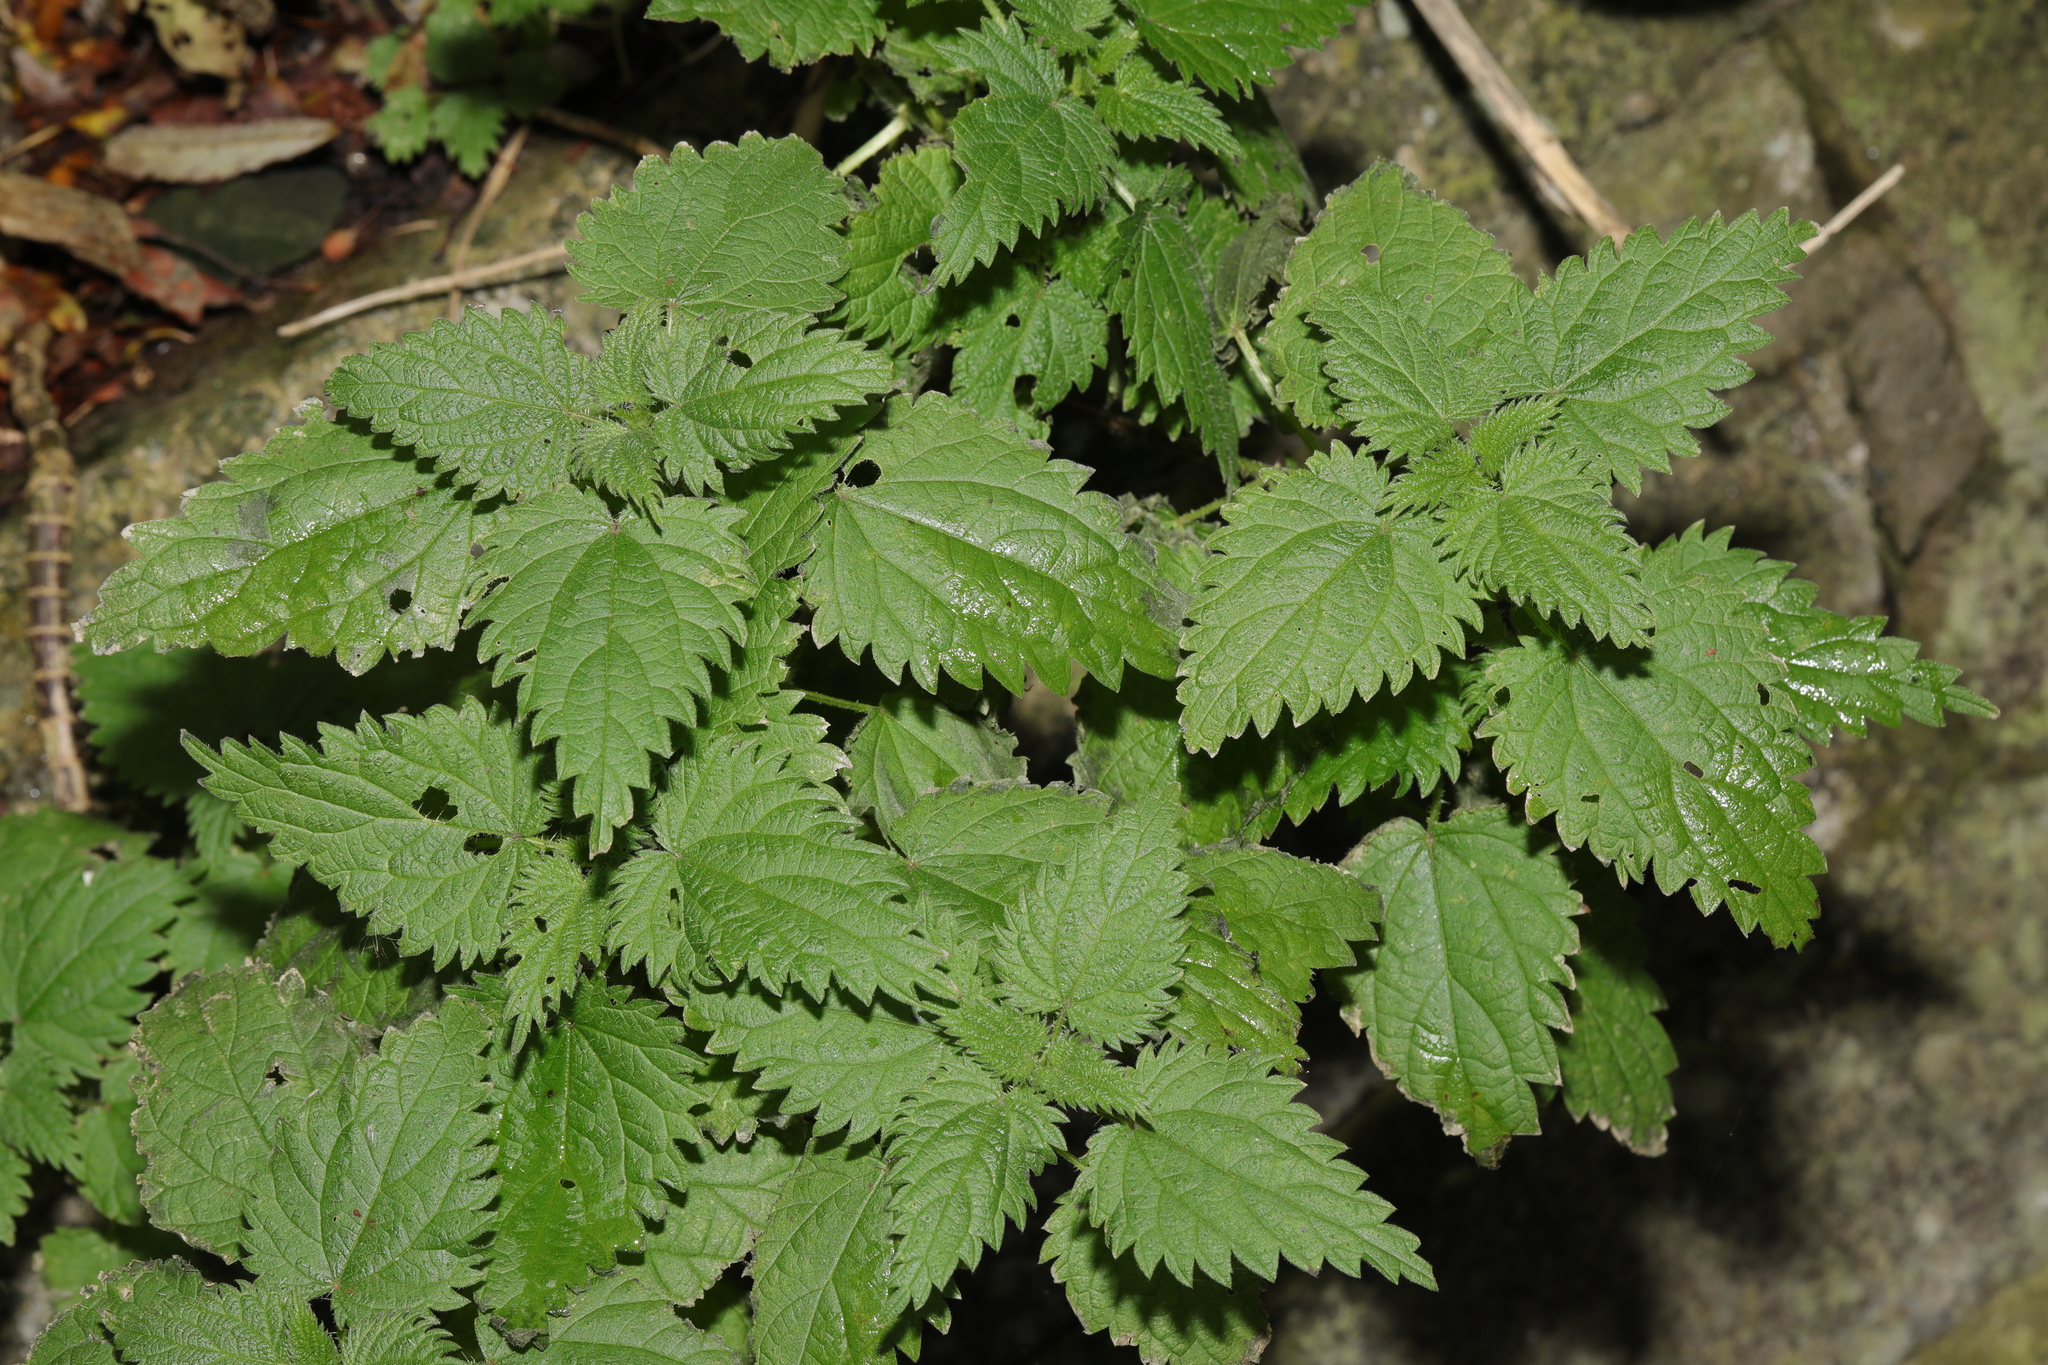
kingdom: Plantae
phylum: Tracheophyta
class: Magnoliopsida
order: Rosales
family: Urticaceae
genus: Urtica
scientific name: Urtica dioica
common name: Common nettle
